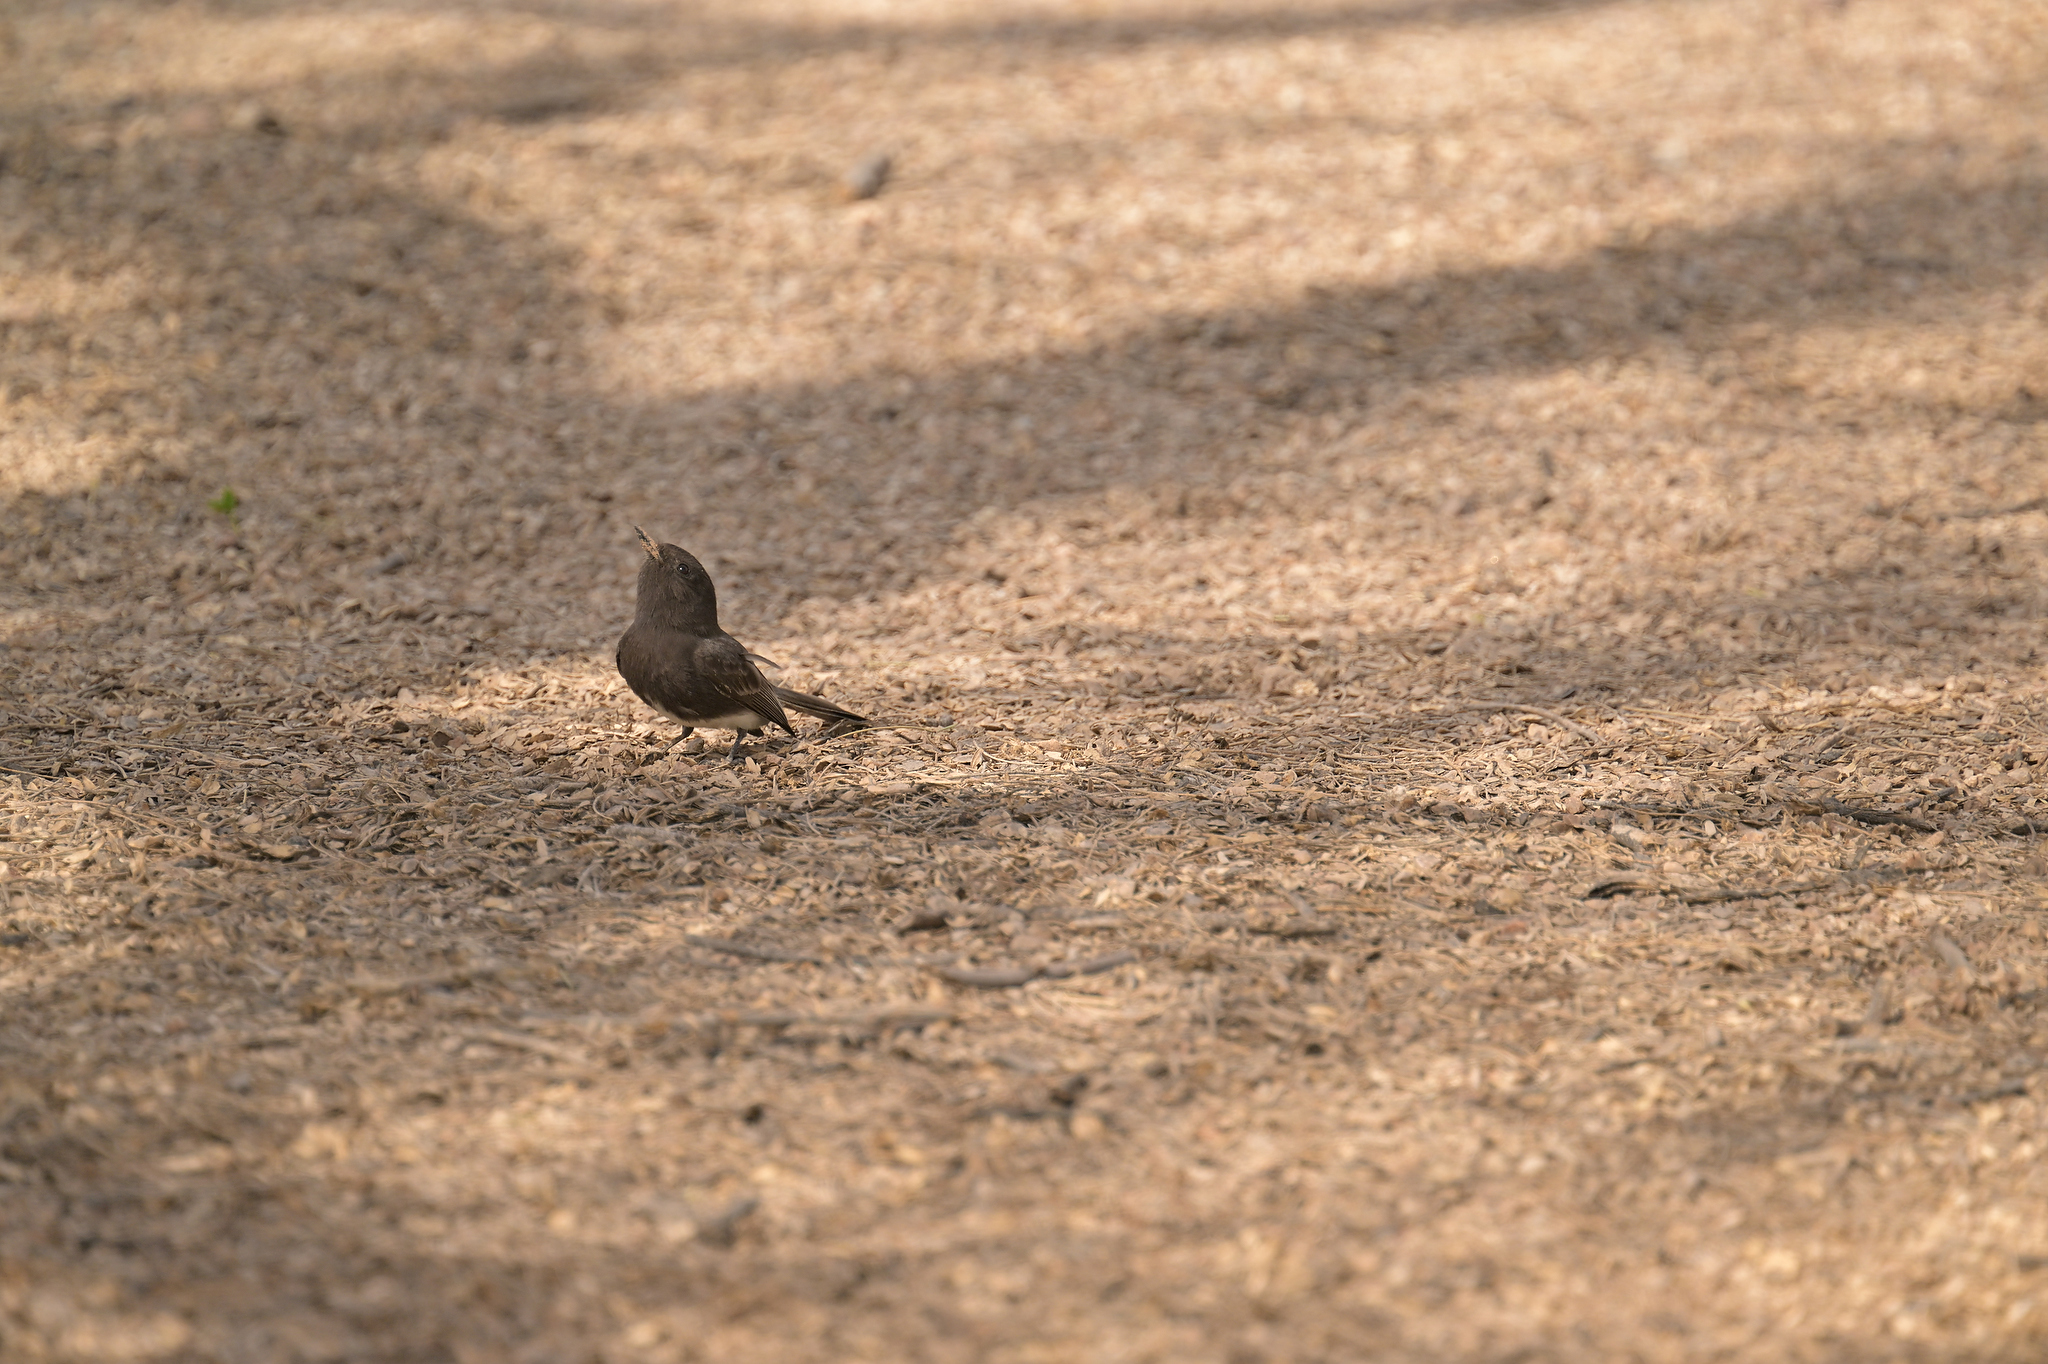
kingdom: Animalia
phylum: Chordata
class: Aves
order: Passeriformes
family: Tyrannidae
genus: Sayornis
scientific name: Sayornis nigricans
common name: Black phoebe
